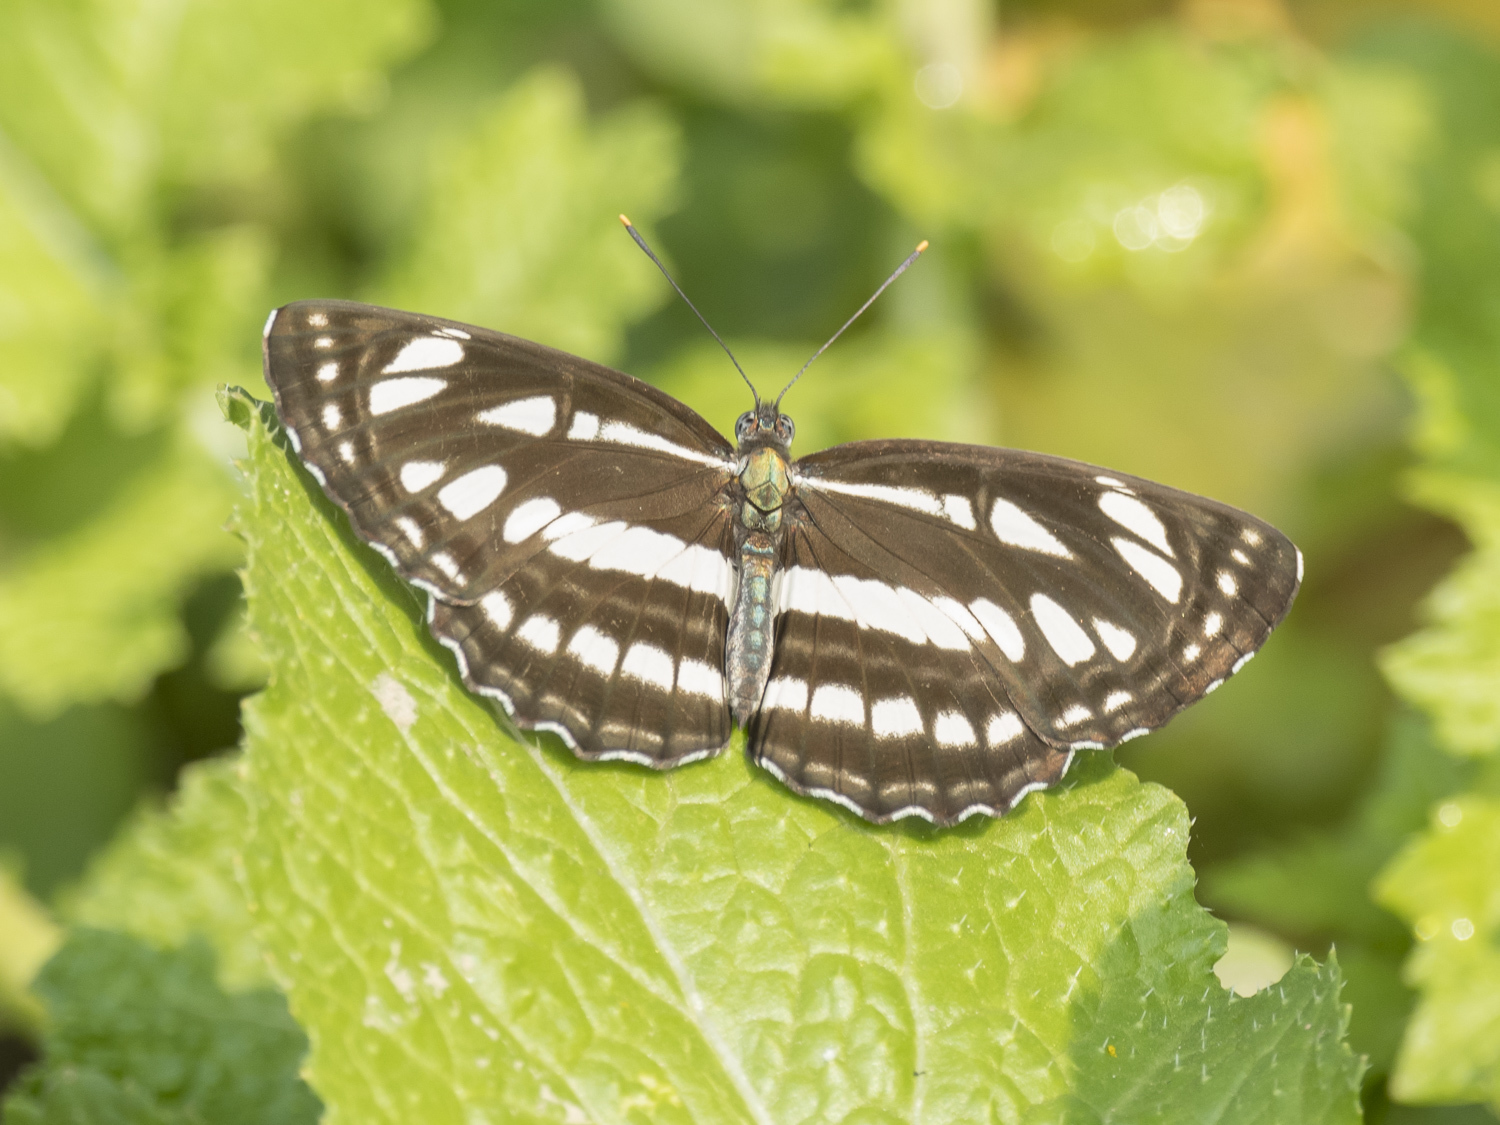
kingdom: Animalia
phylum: Arthropoda
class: Insecta
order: Lepidoptera
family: Nymphalidae
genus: Neptis
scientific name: Neptis hylas
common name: Common sailer
